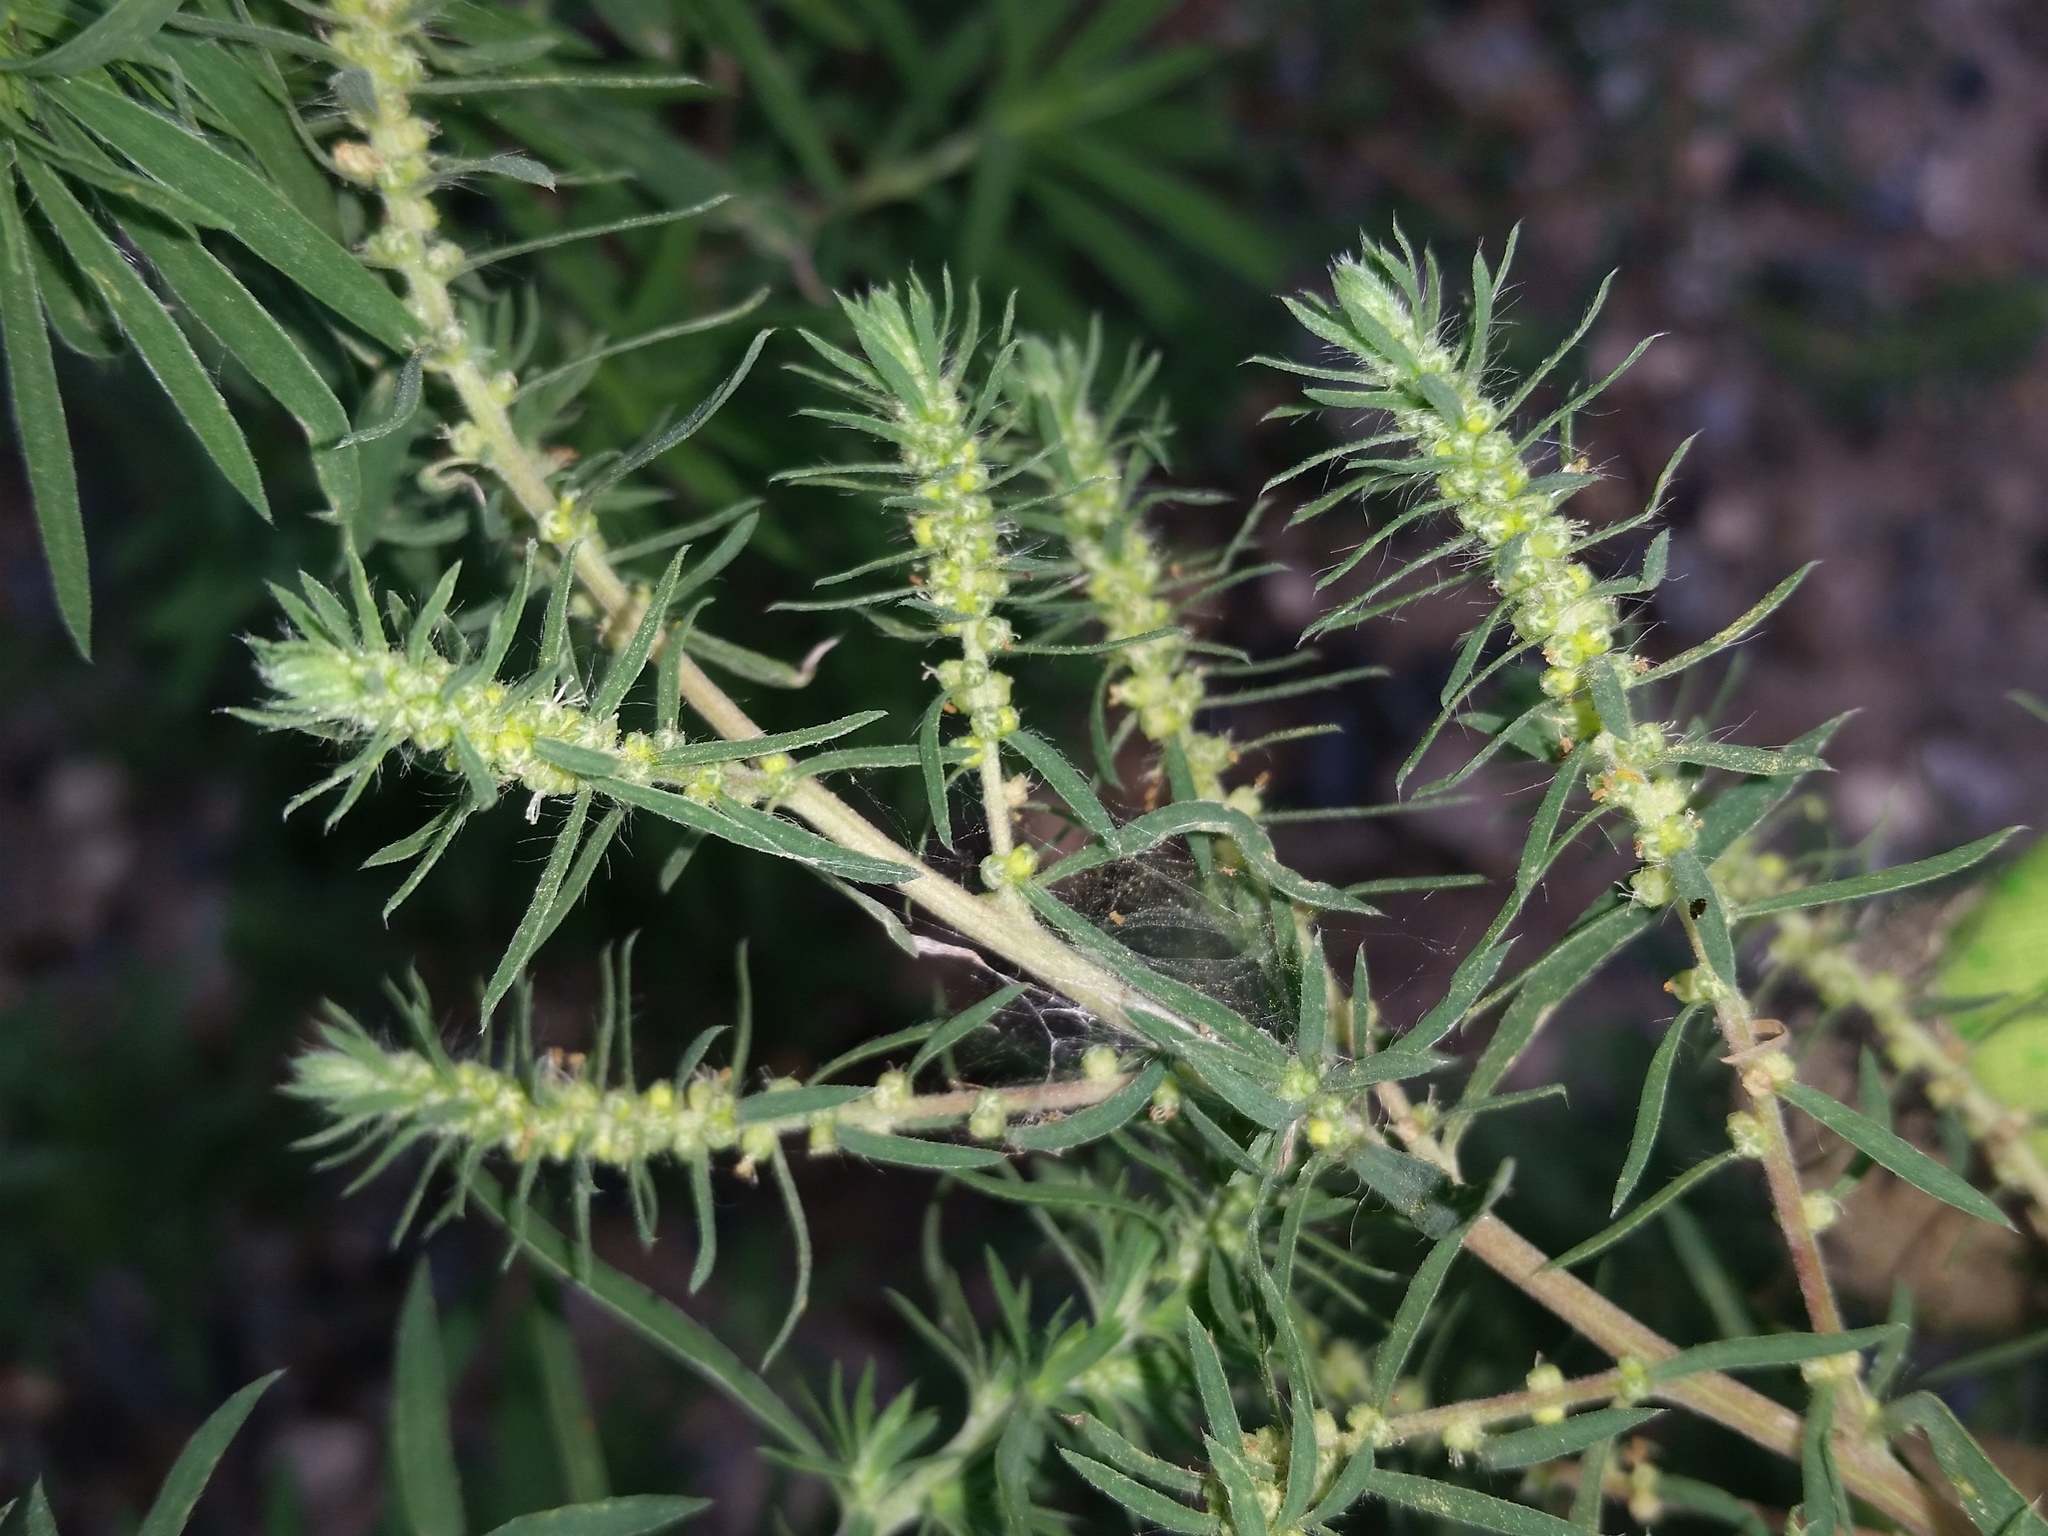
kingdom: Plantae
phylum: Tracheophyta
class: Magnoliopsida
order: Caryophyllales
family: Amaranthaceae
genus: Bassia
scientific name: Bassia scoparia
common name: Belvedere
